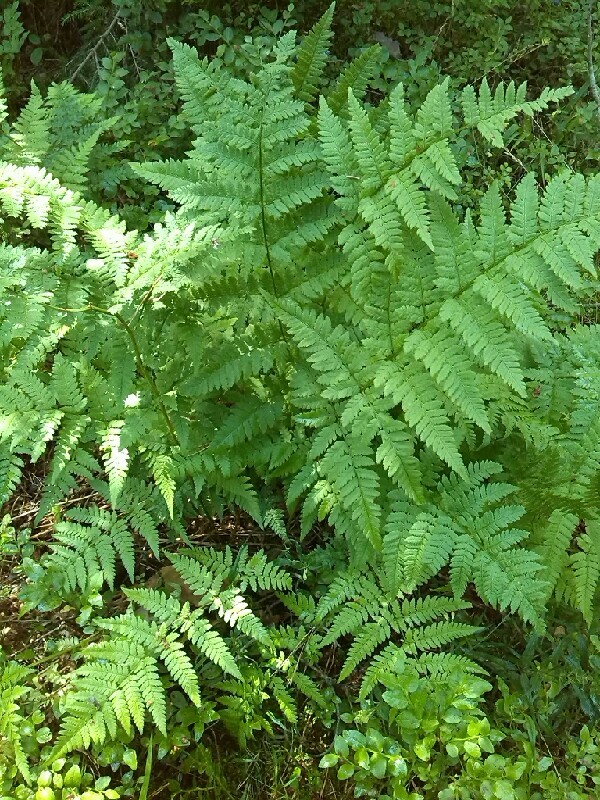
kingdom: Plantae
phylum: Tracheophyta
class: Polypodiopsida
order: Polypodiales
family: Dryopteridaceae
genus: Dryopteris
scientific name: Dryopteris expansa
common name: Northern buckler fern
